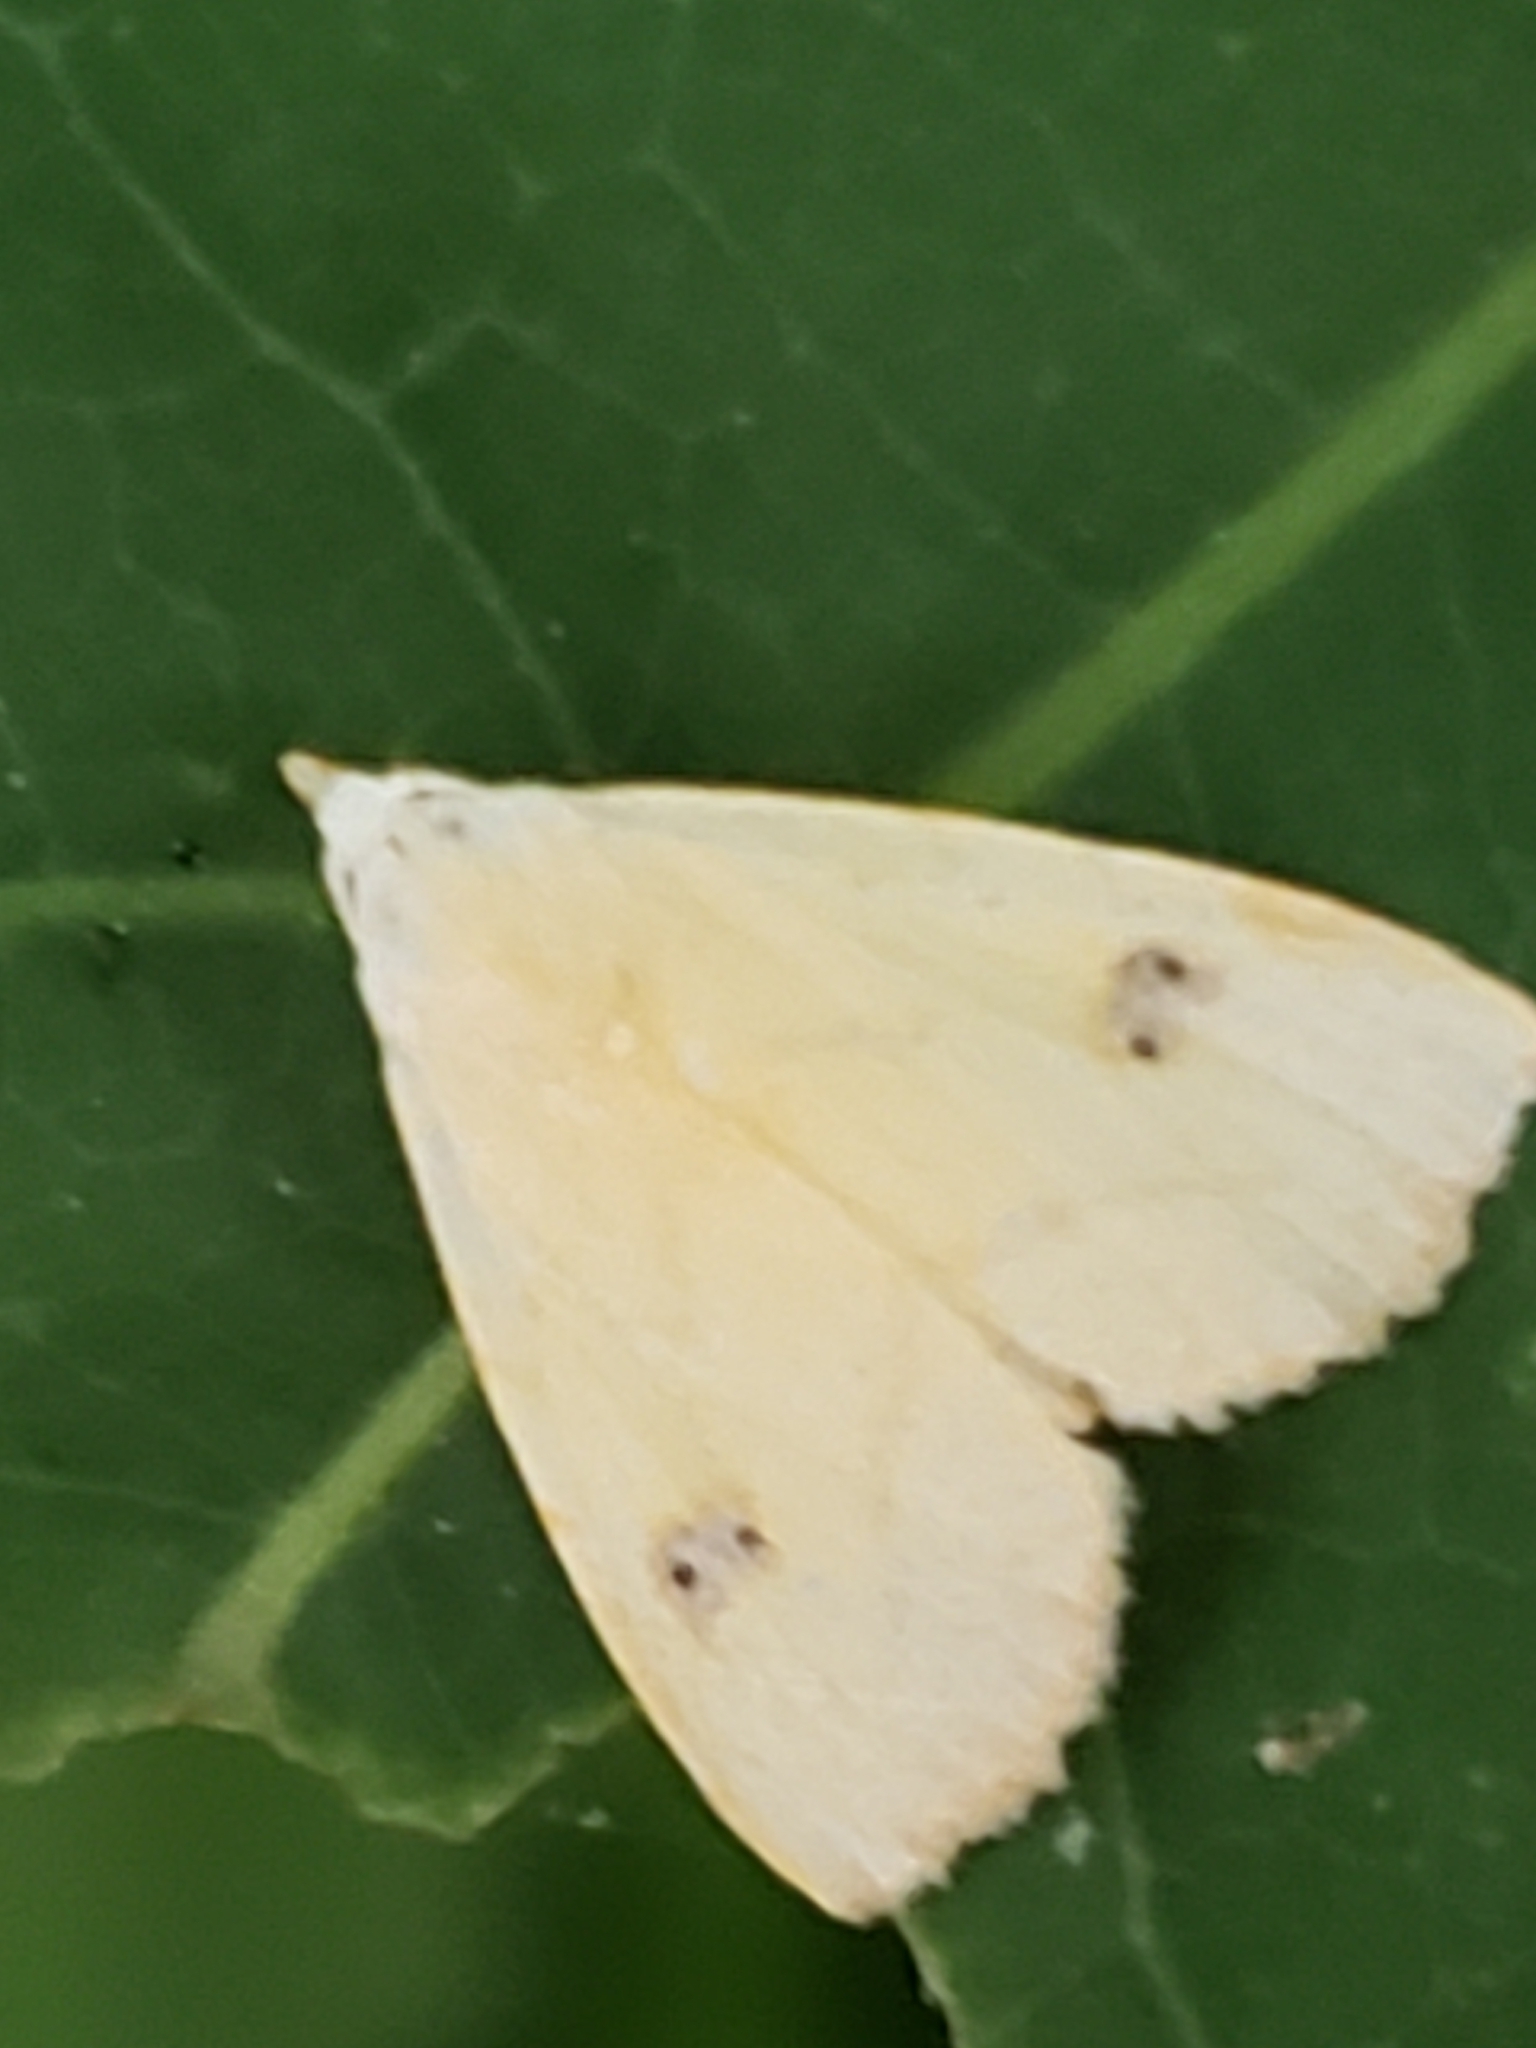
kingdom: Animalia
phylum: Arthropoda
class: Insecta
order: Lepidoptera
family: Erebidae
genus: Rivula
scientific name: Rivula propinqualis
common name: Spotted grass moth
